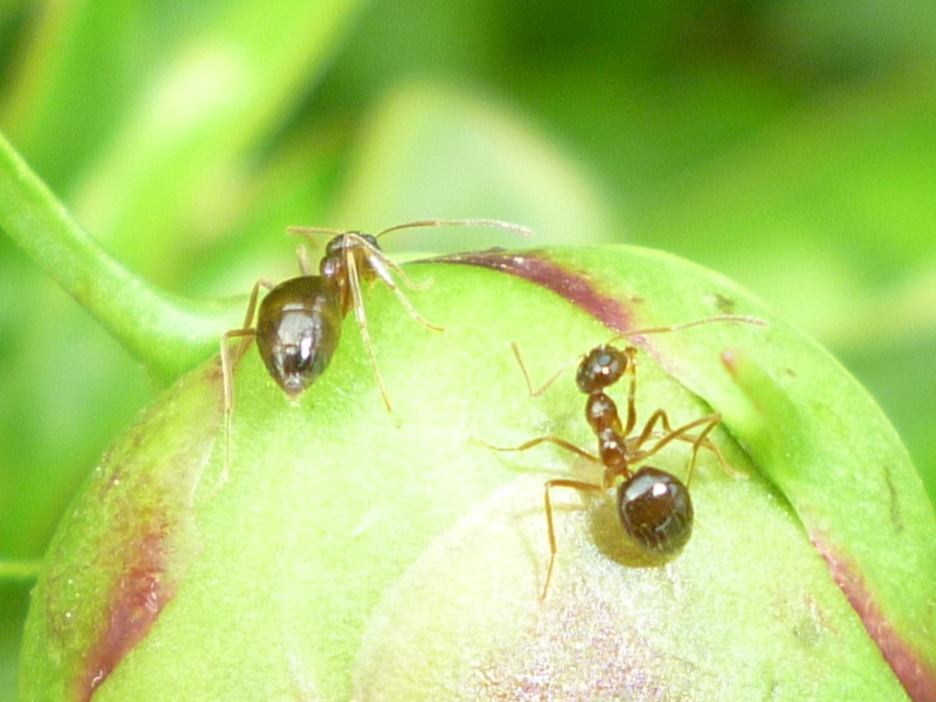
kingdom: Animalia
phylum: Arthropoda
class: Insecta
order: Hymenoptera
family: Formicidae
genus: Prenolepis
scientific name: Prenolepis imparis
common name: Small honey ant
